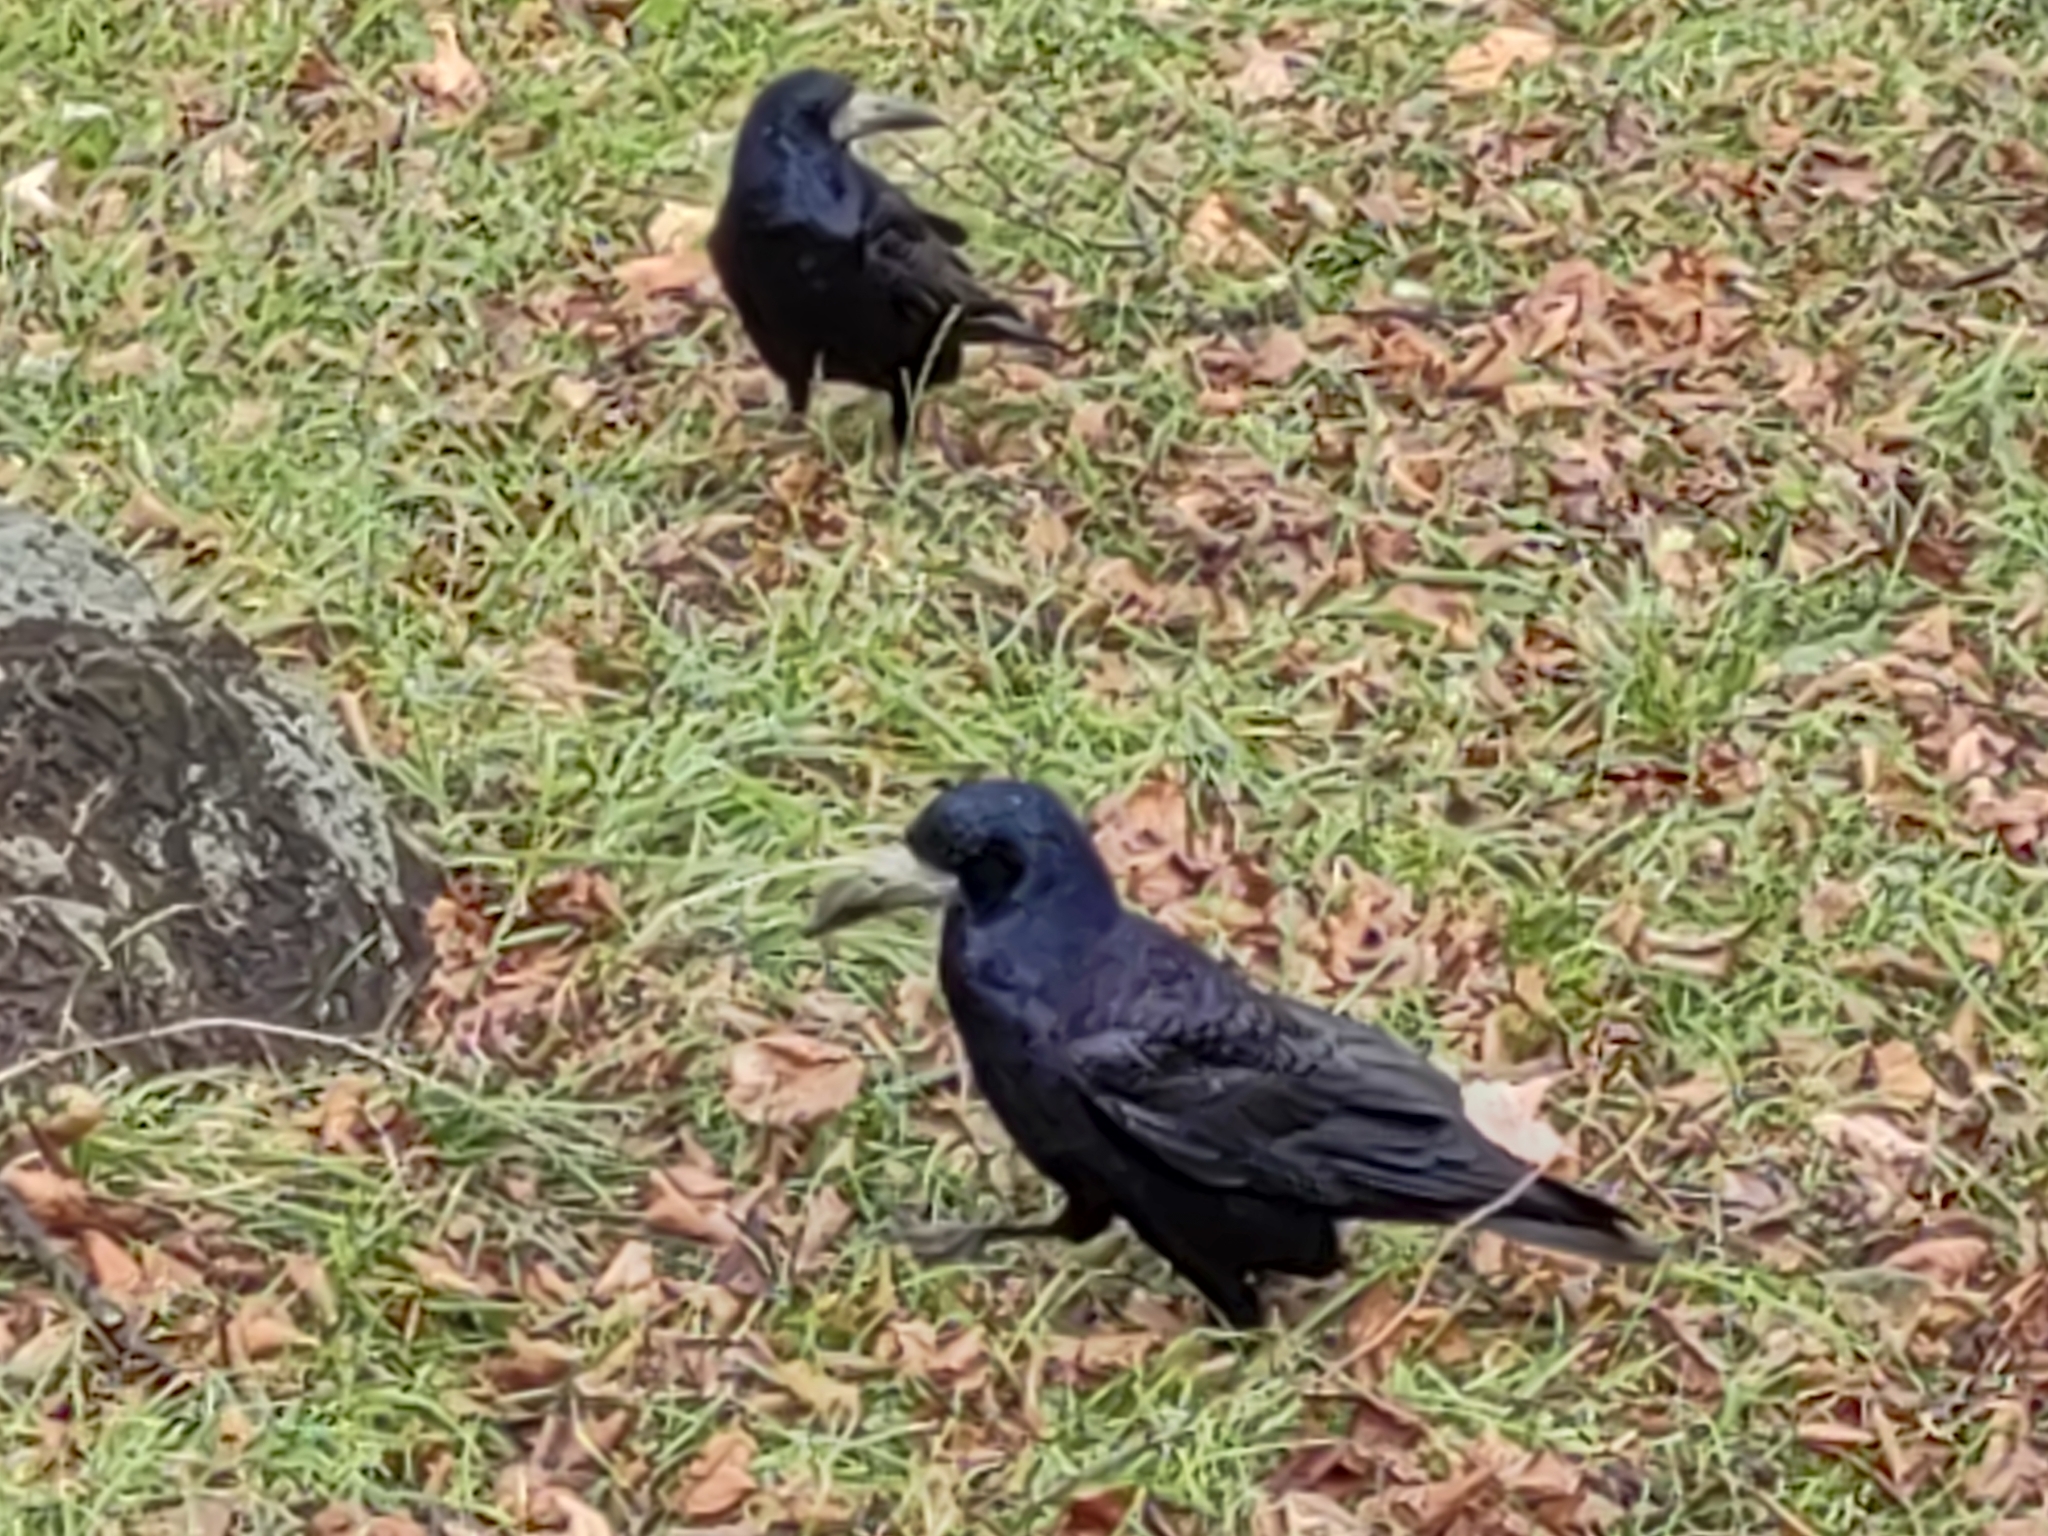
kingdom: Animalia
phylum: Chordata
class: Aves
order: Passeriformes
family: Corvidae
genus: Corvus
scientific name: Corvus frugilegus
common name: Rook
